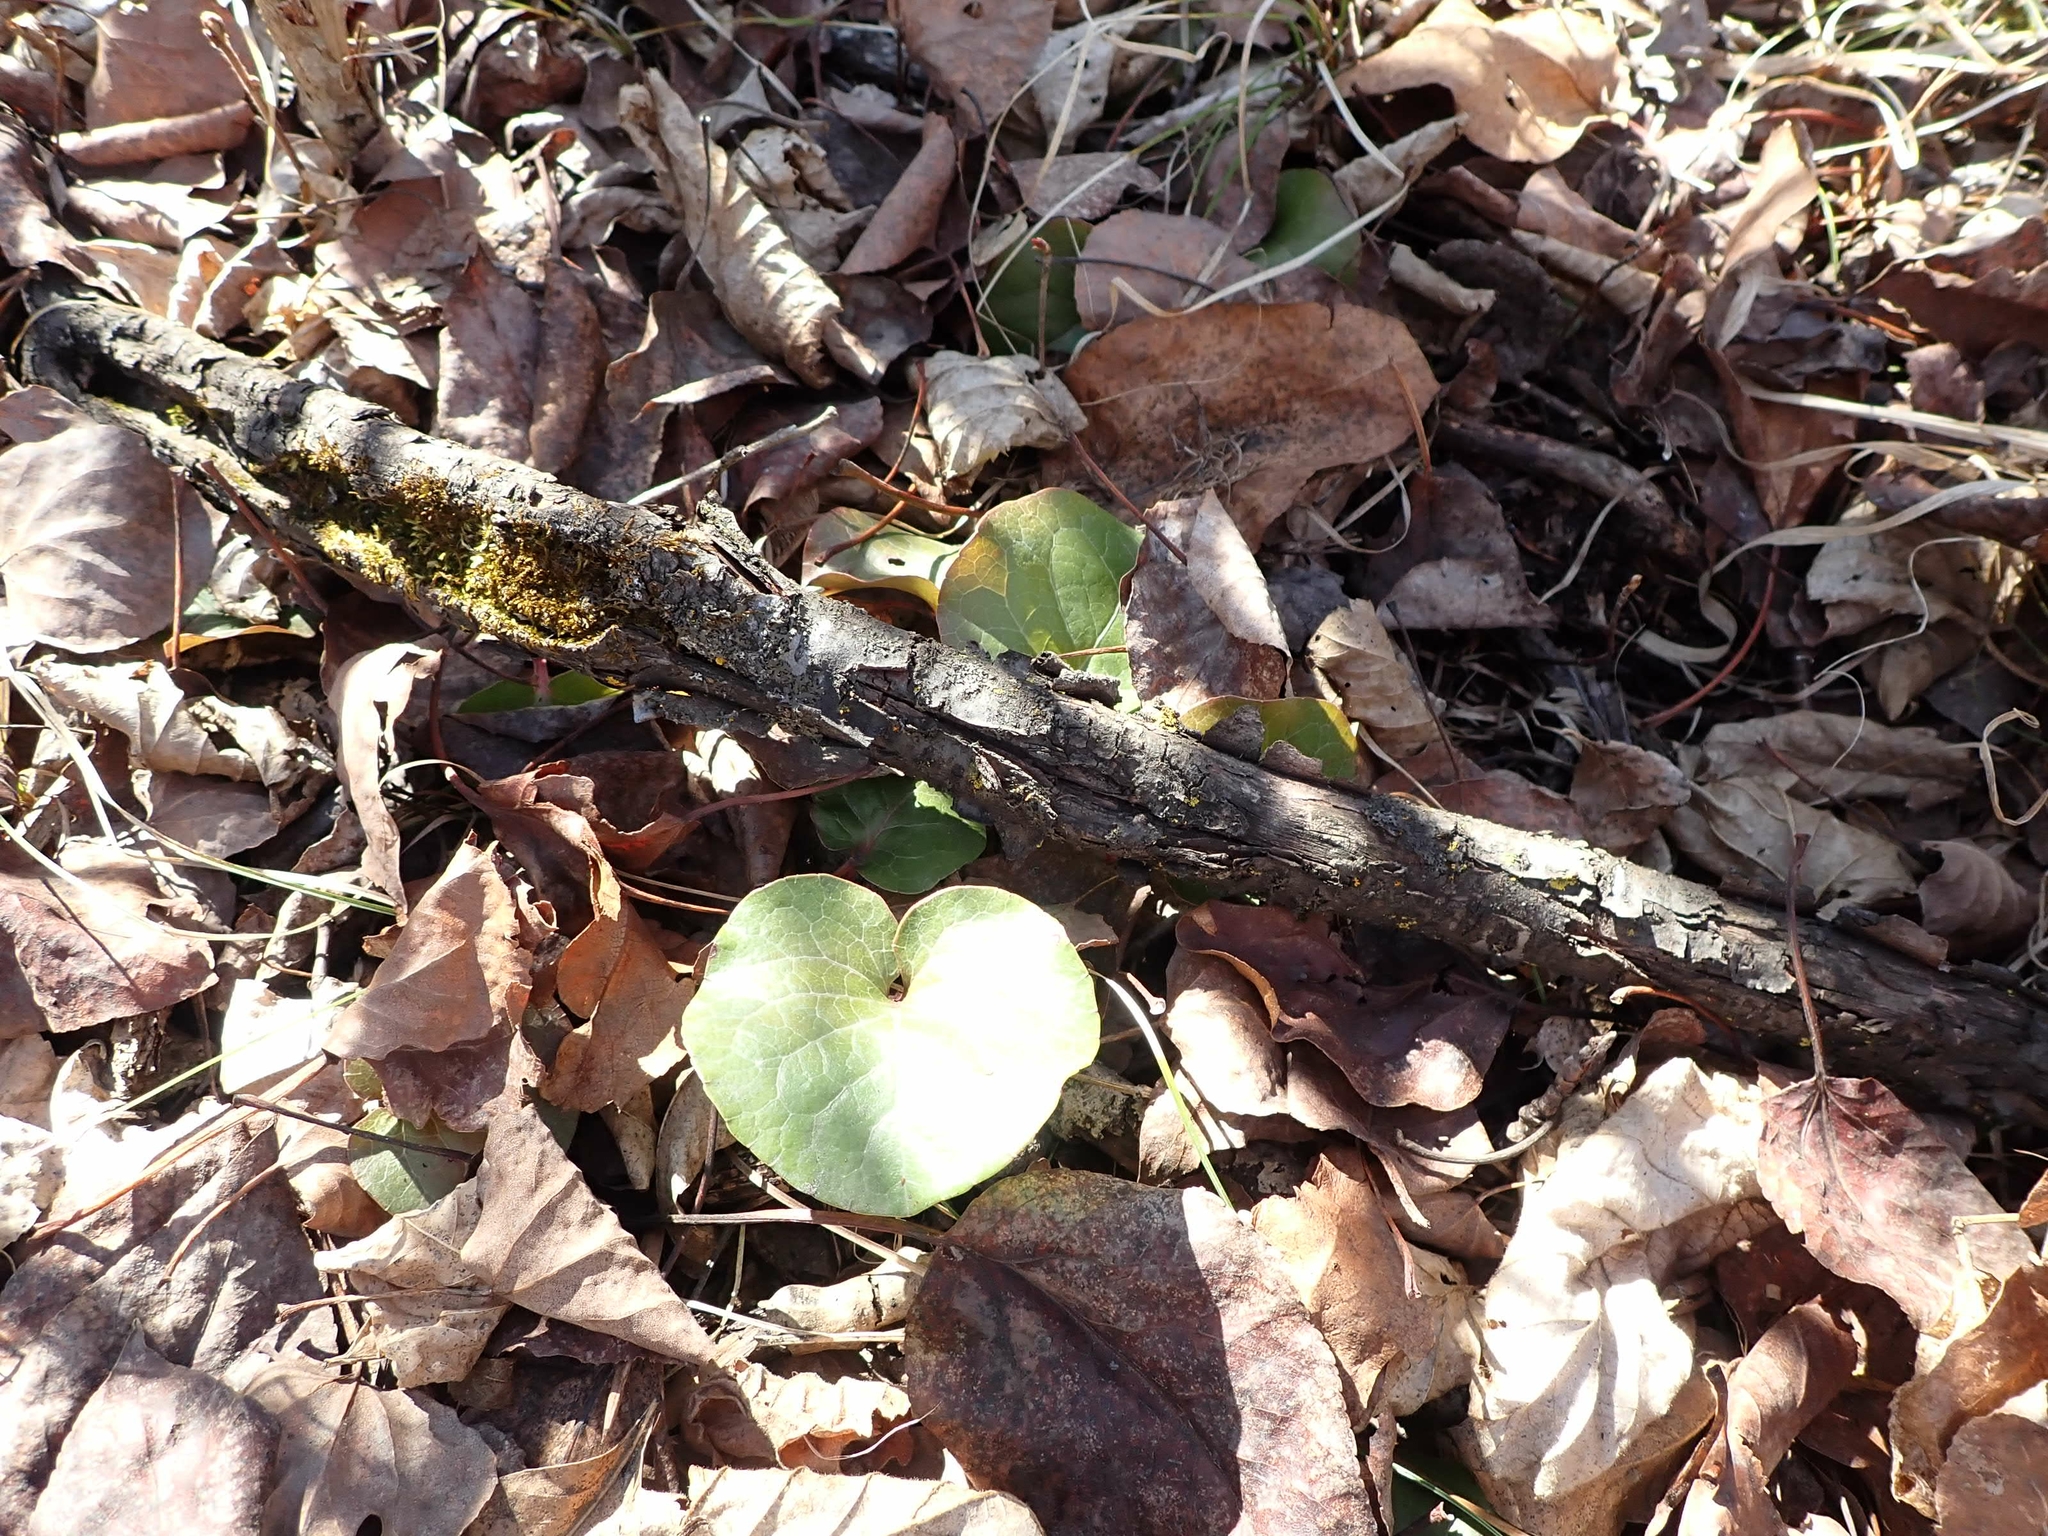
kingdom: Plantae
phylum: Tracheophyta
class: Magnoliopsida
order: Ericales
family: Ericaceae
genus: Pyrola
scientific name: Pyrola asarifolia
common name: Bog wintergreen
